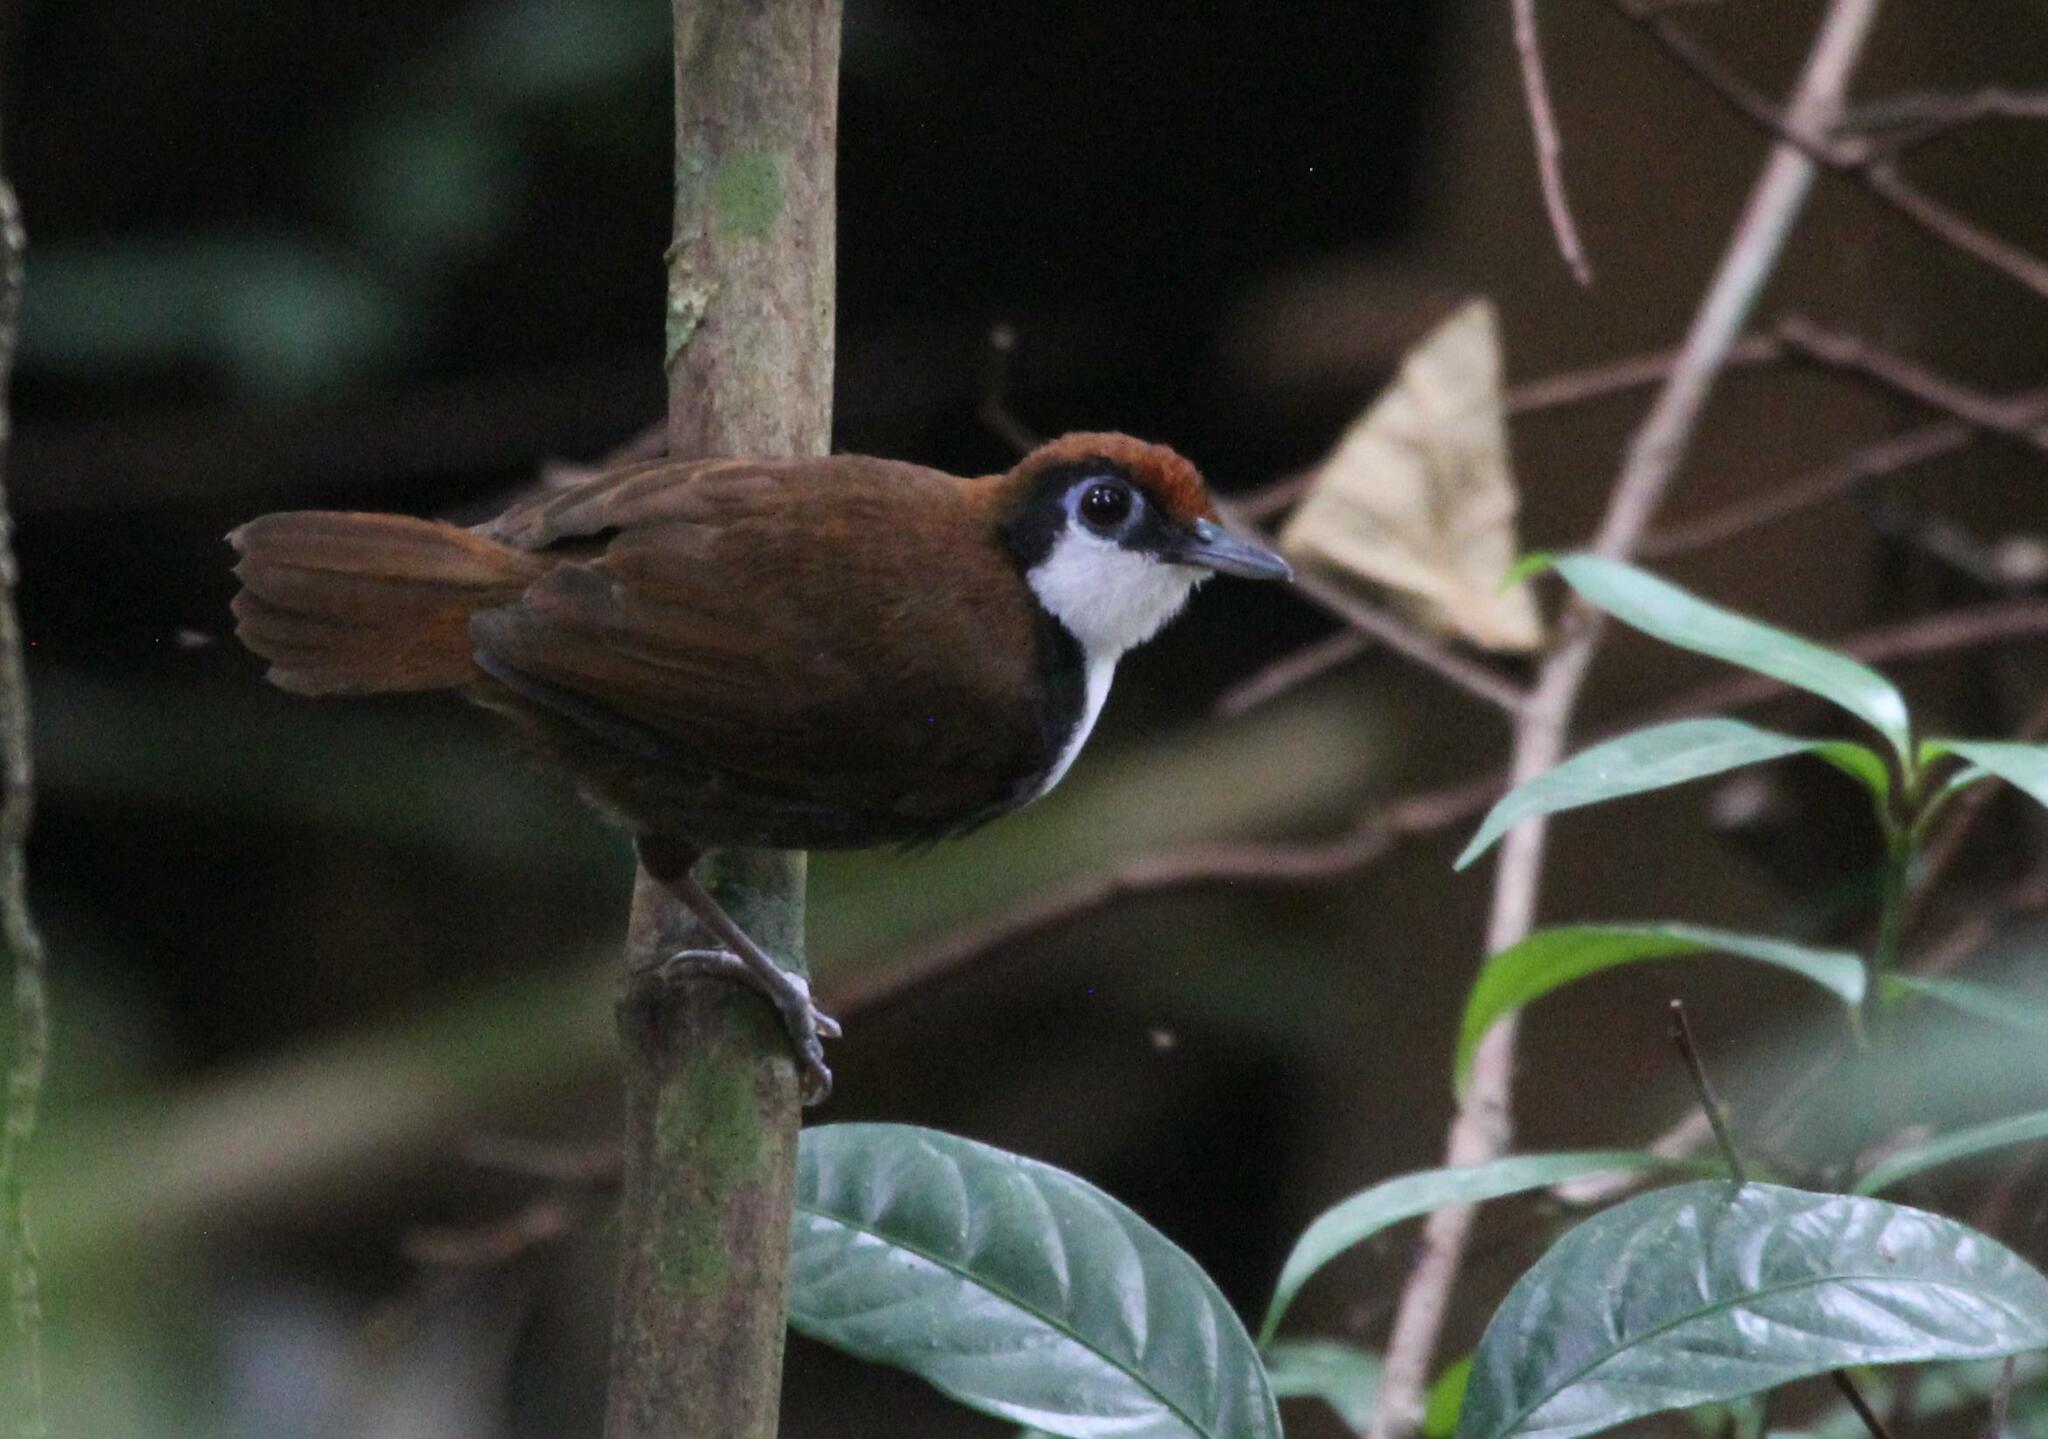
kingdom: Animalia
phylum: Chordata
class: Aves
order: Passeriformes
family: Thamnophilidae
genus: Gymnopithys
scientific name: Gymnopithys leucaspis
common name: White-cheeked antbird
